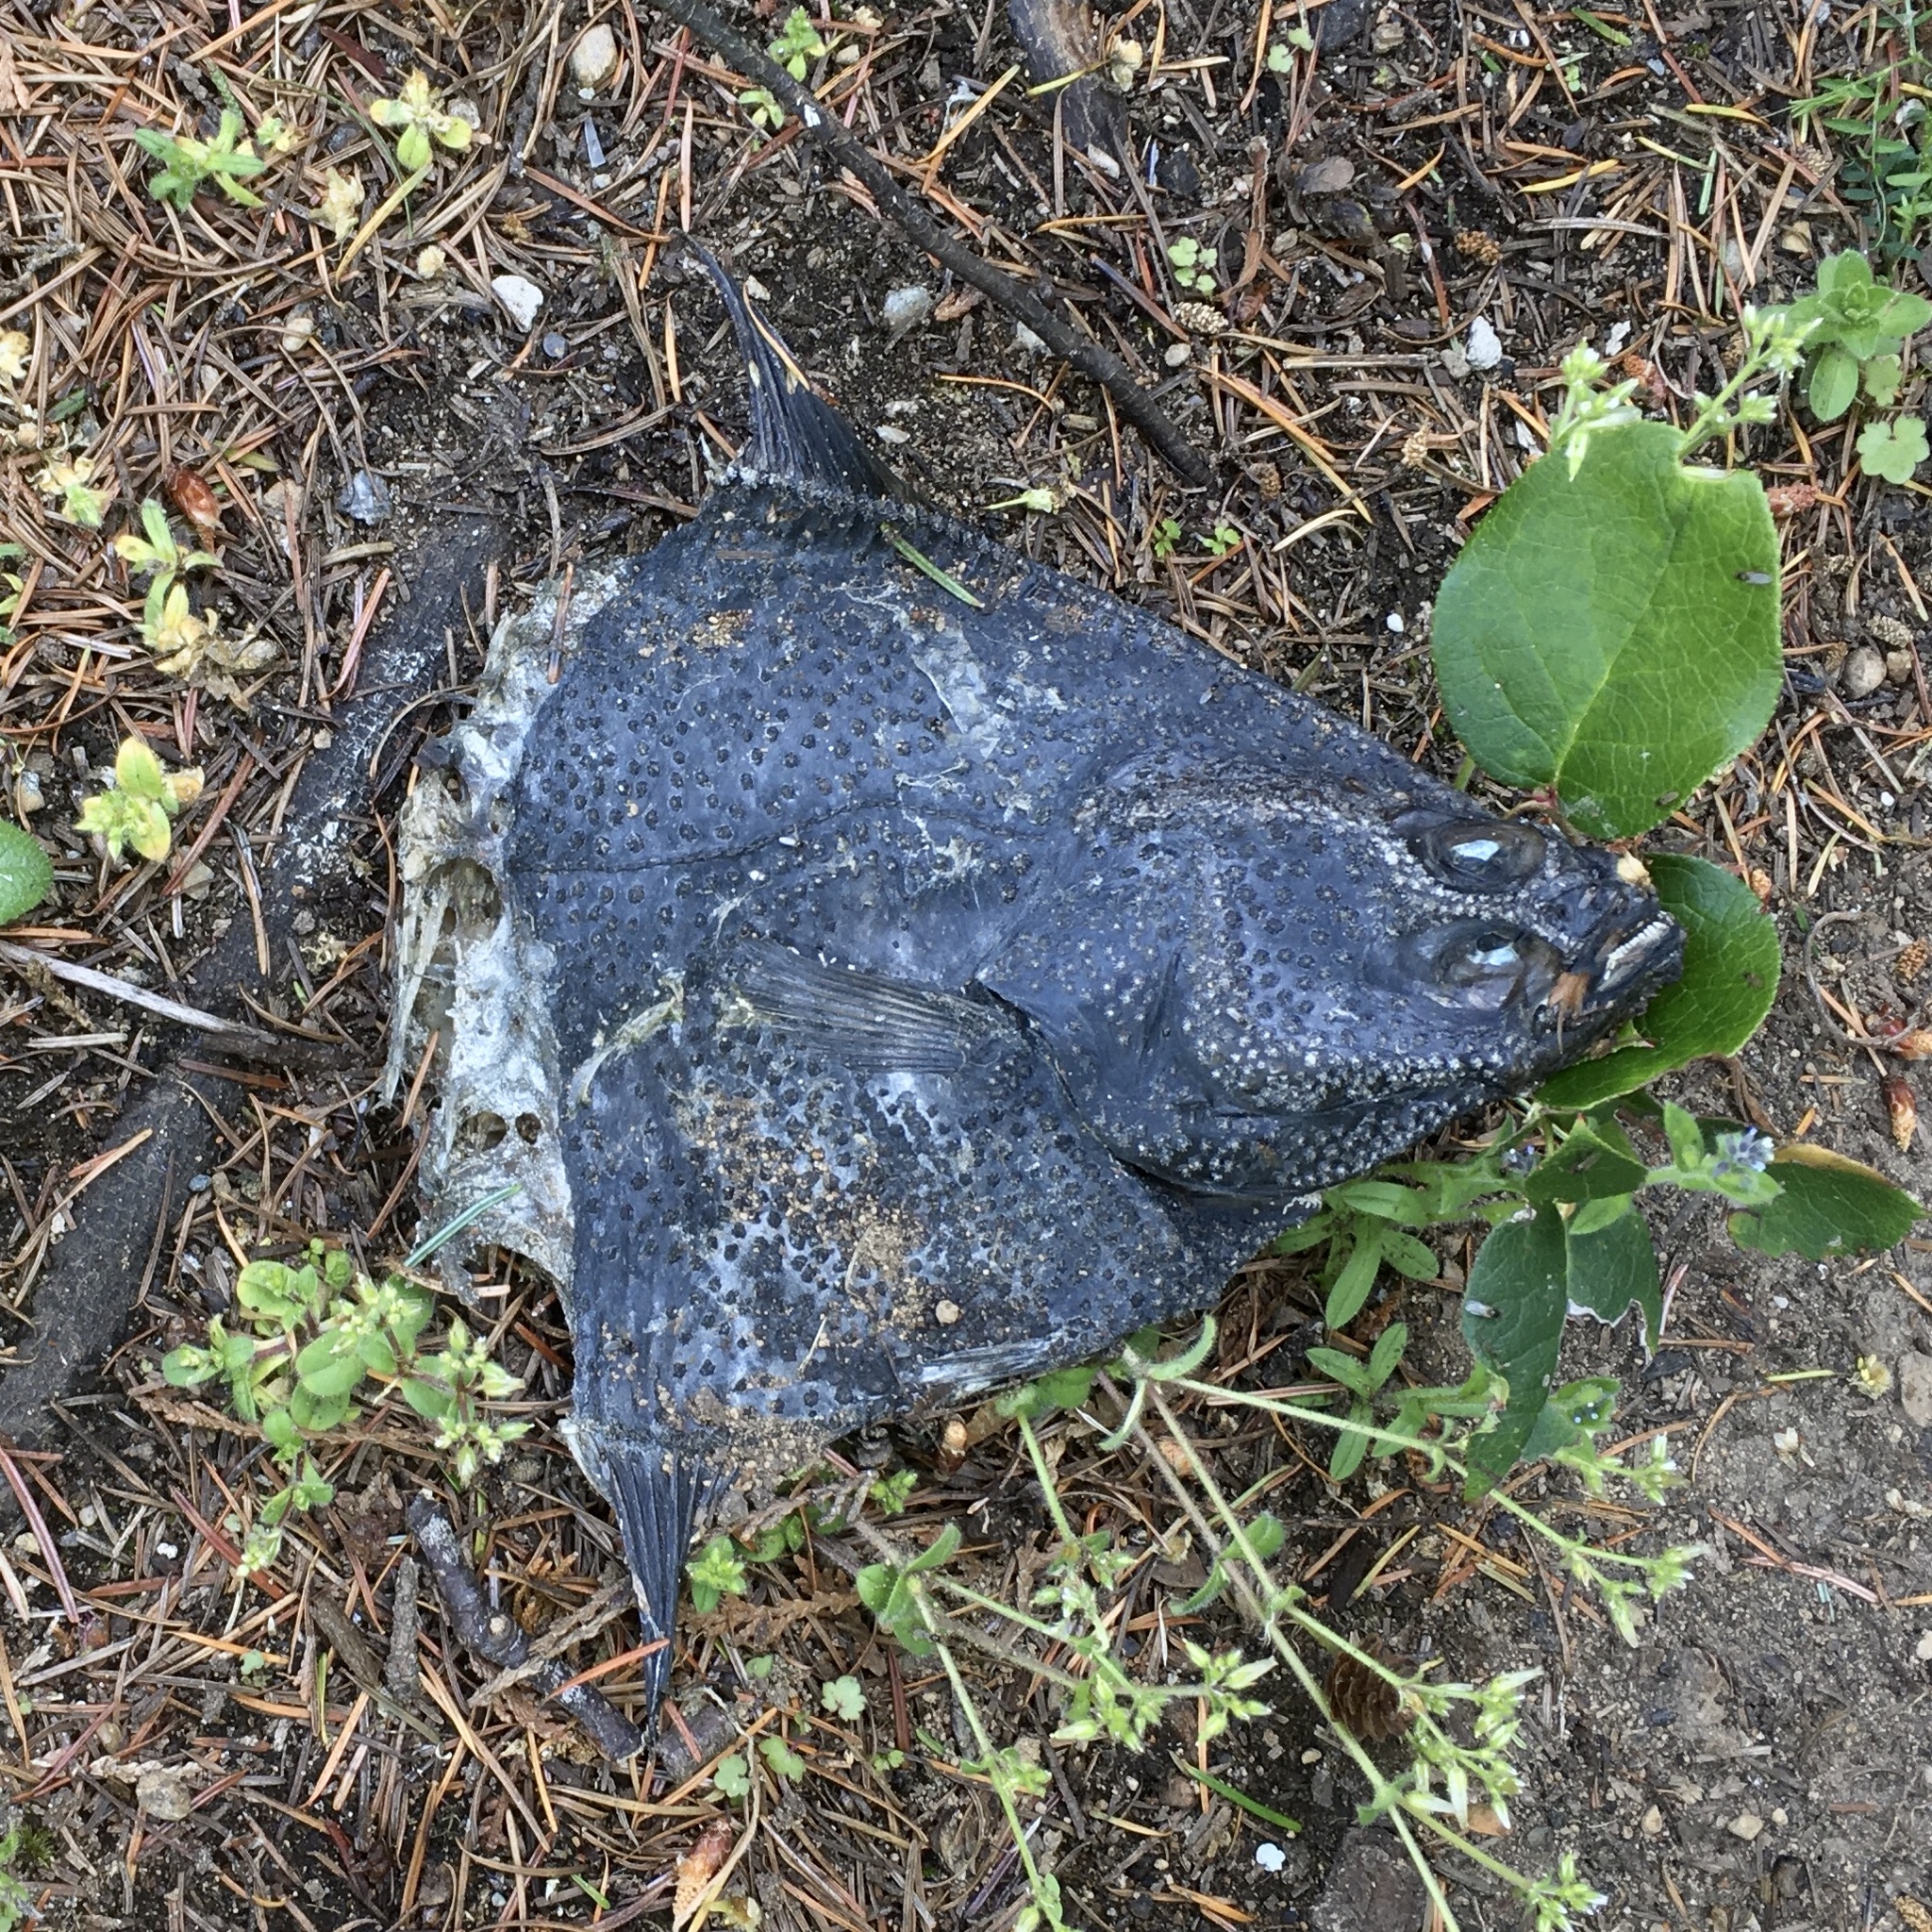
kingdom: Animalia
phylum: Chordata
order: Pleuronectiformes
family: Pleuronectidae
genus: Platichthys
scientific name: Platichthys stellatus
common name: Starry flounder
